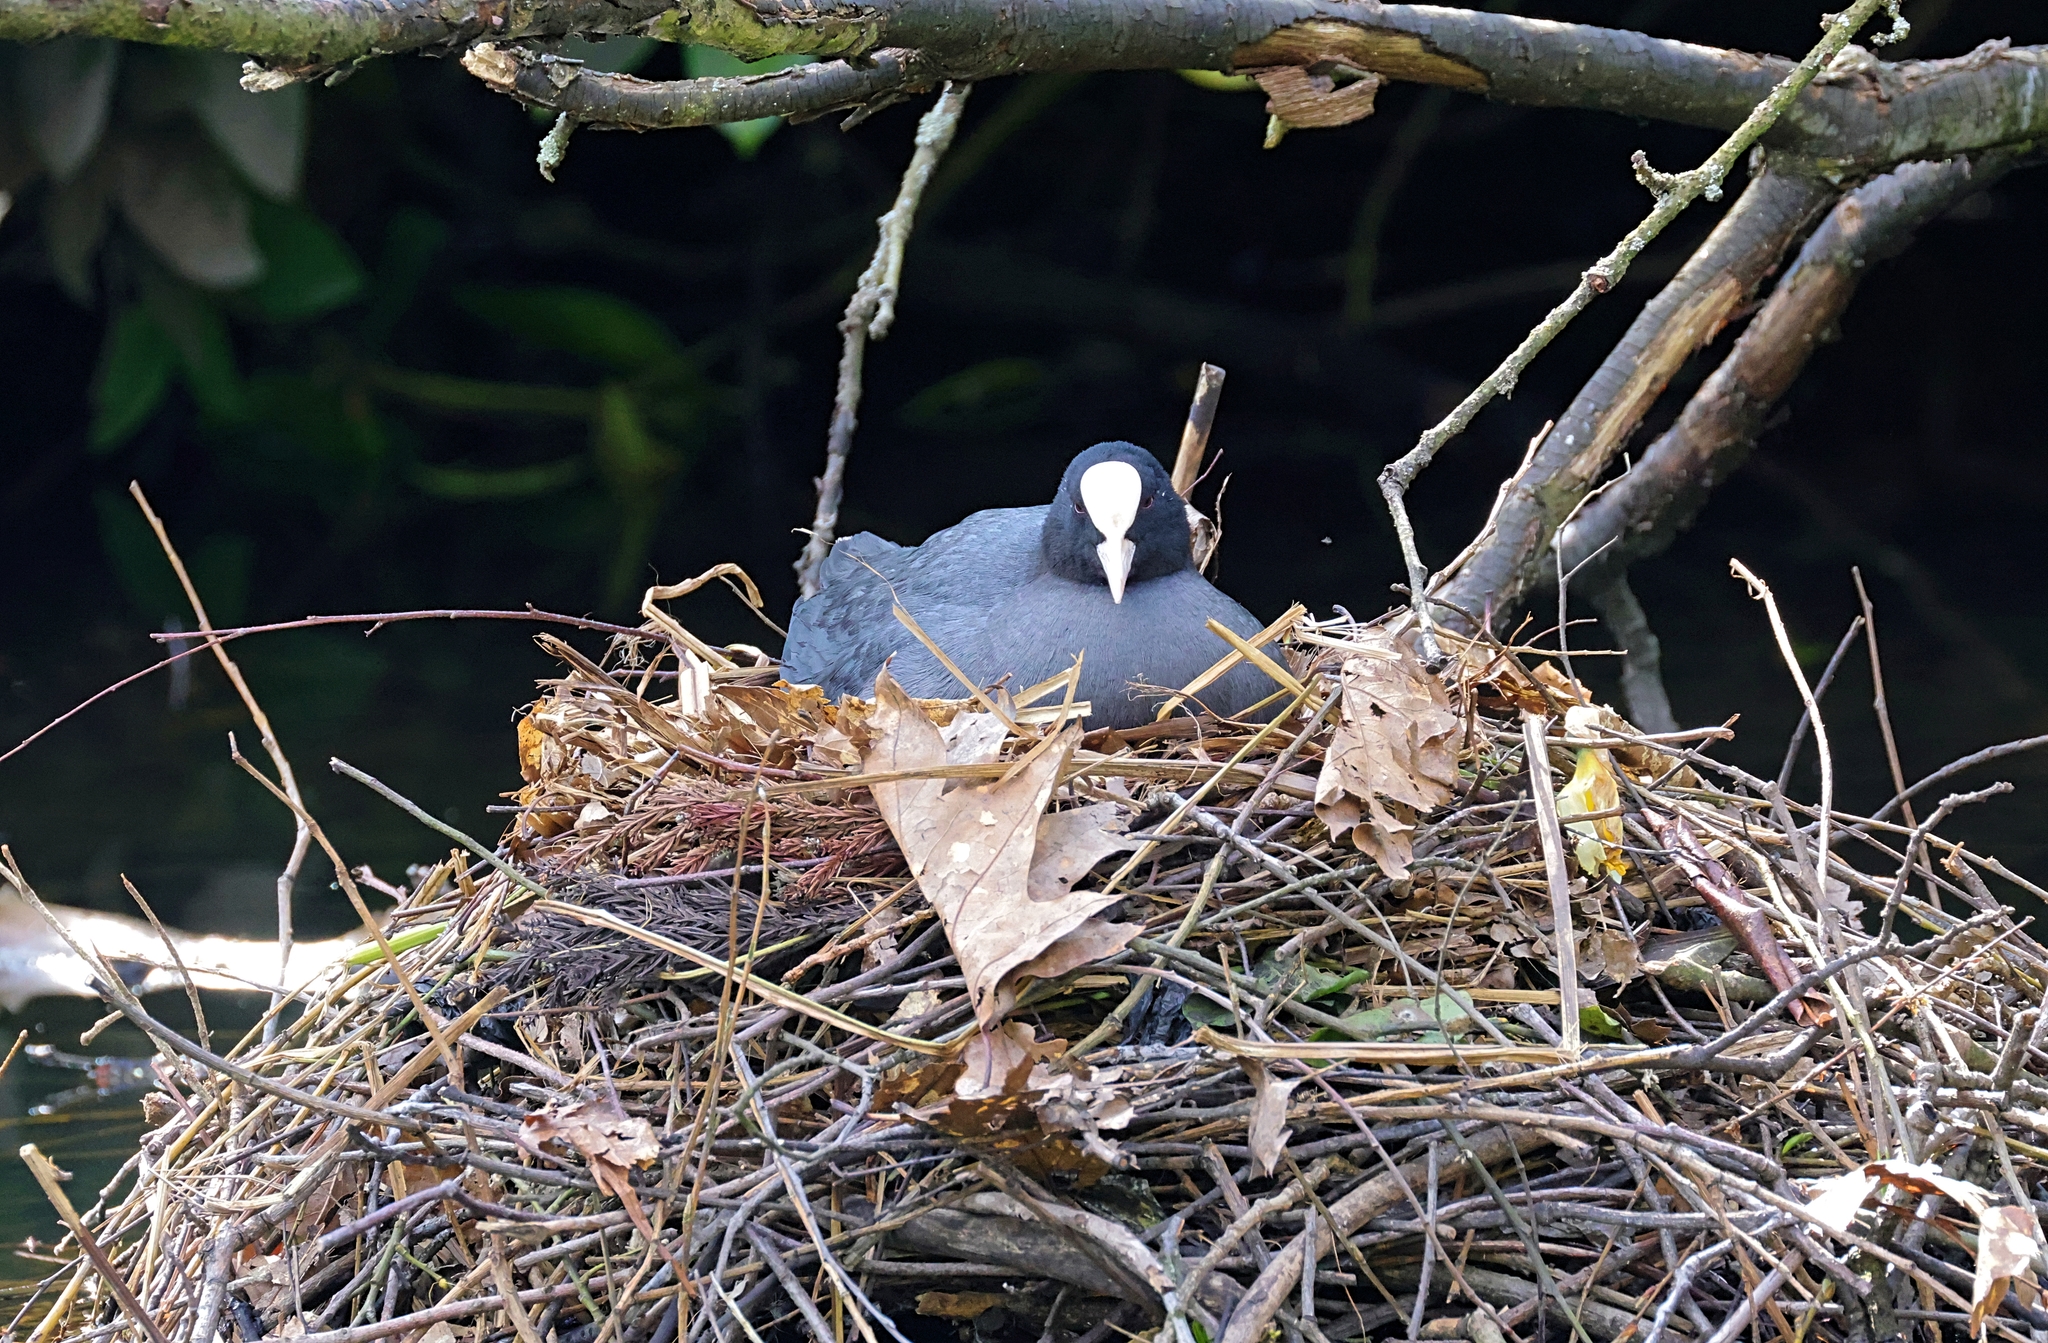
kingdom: Animalia
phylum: Chordata
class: Aves
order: Gruiformes
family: Rallidae
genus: Fulica
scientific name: Fulica atra
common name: Eurasian coot
